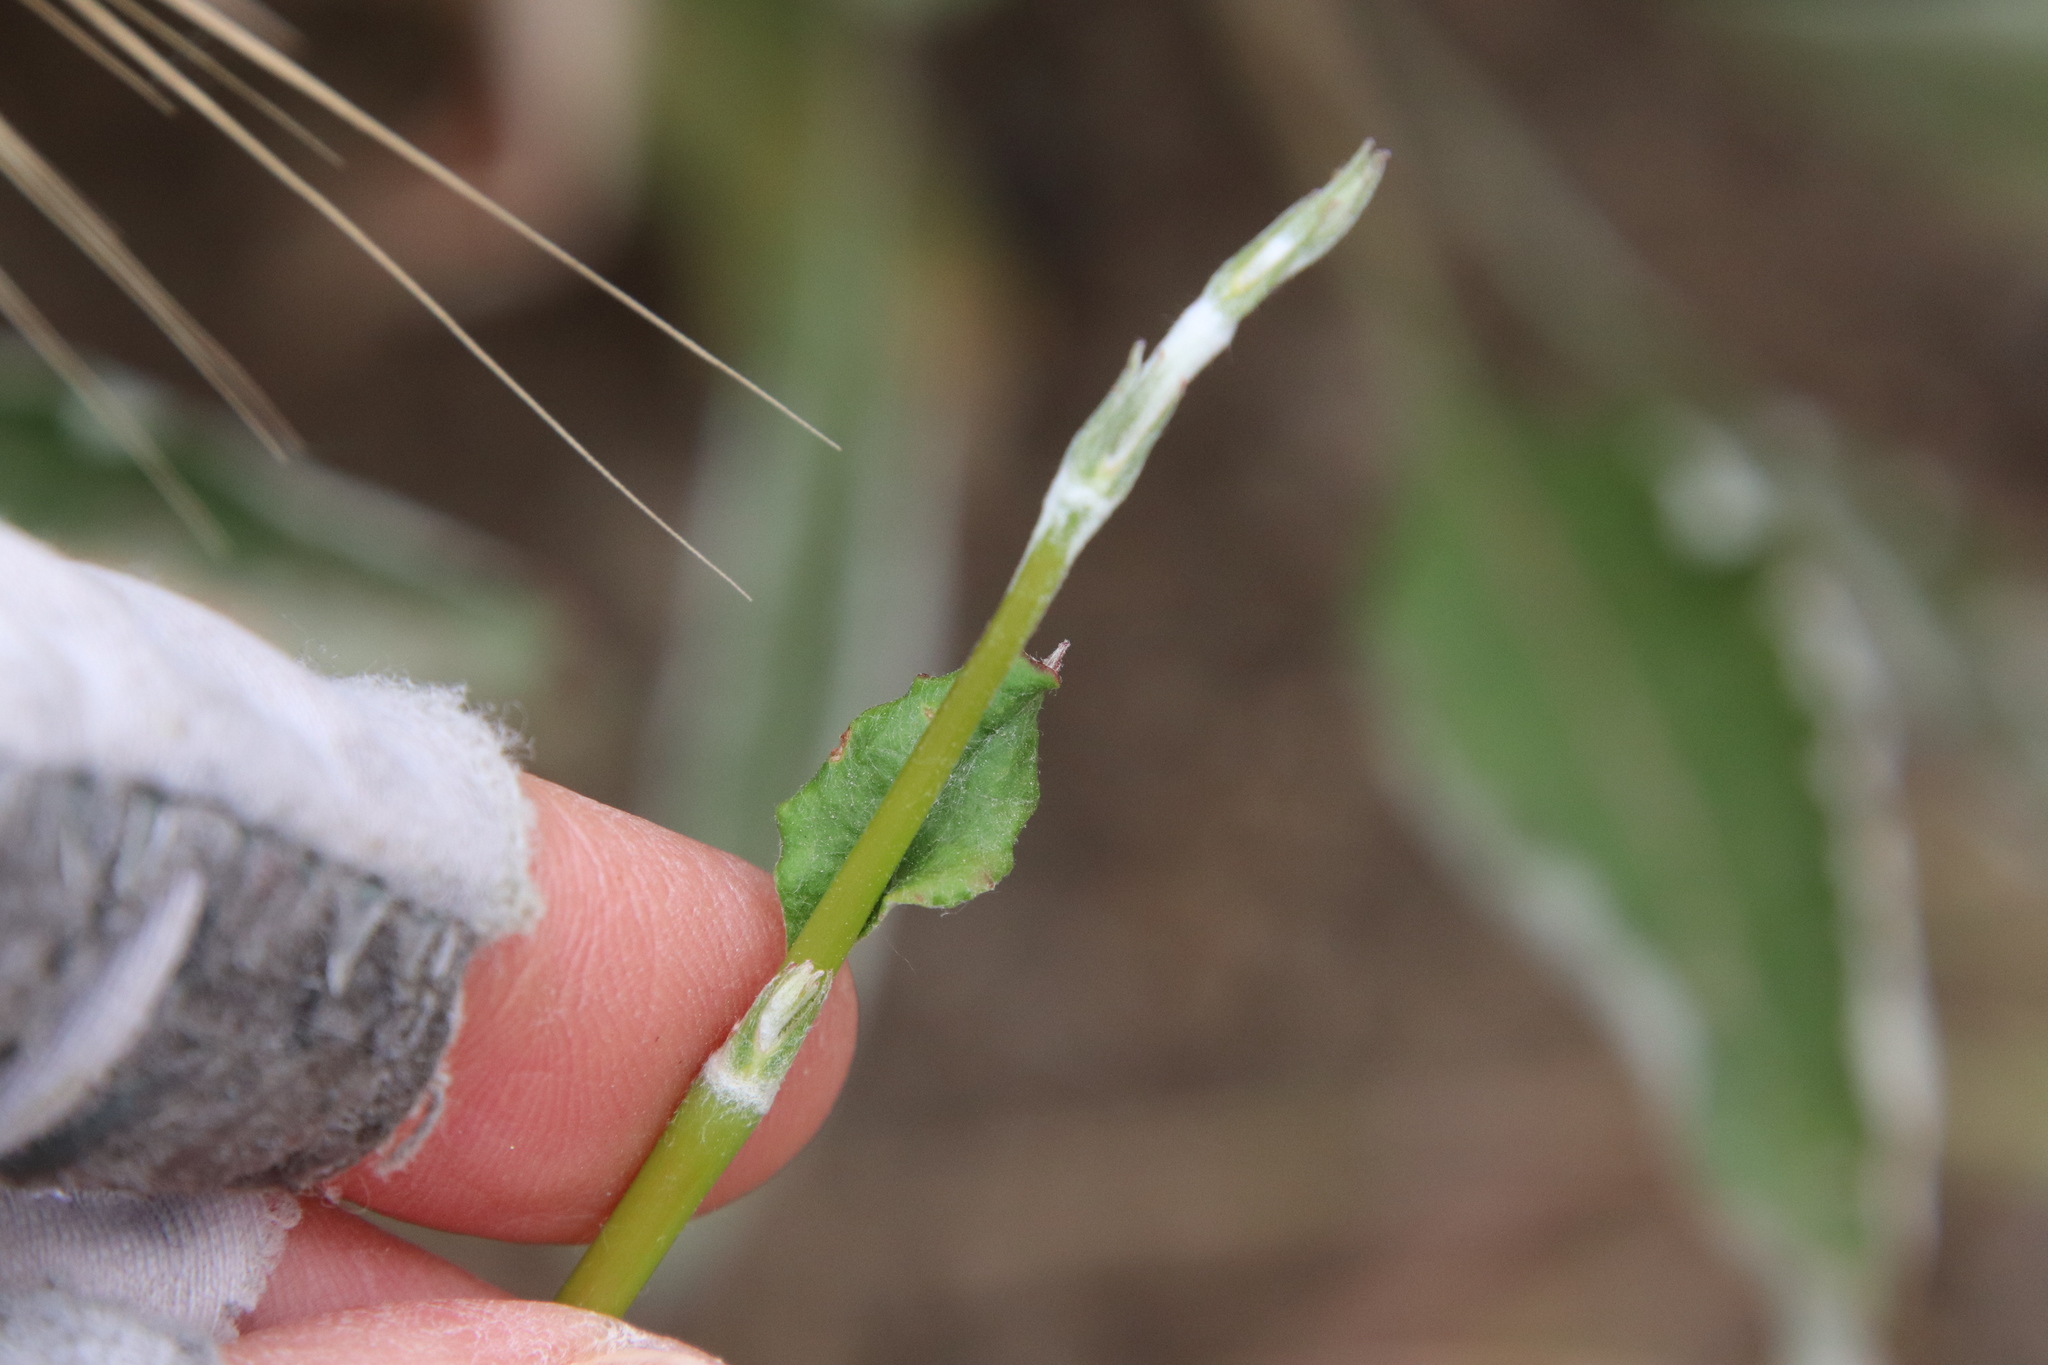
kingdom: Plantae
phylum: Tracheophyta
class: Magnoliopsida
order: Caryophyllales
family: Polygonaceae
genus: Eriogonum
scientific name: Eriogonum elongatum
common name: Long-stem wild buckwheat
